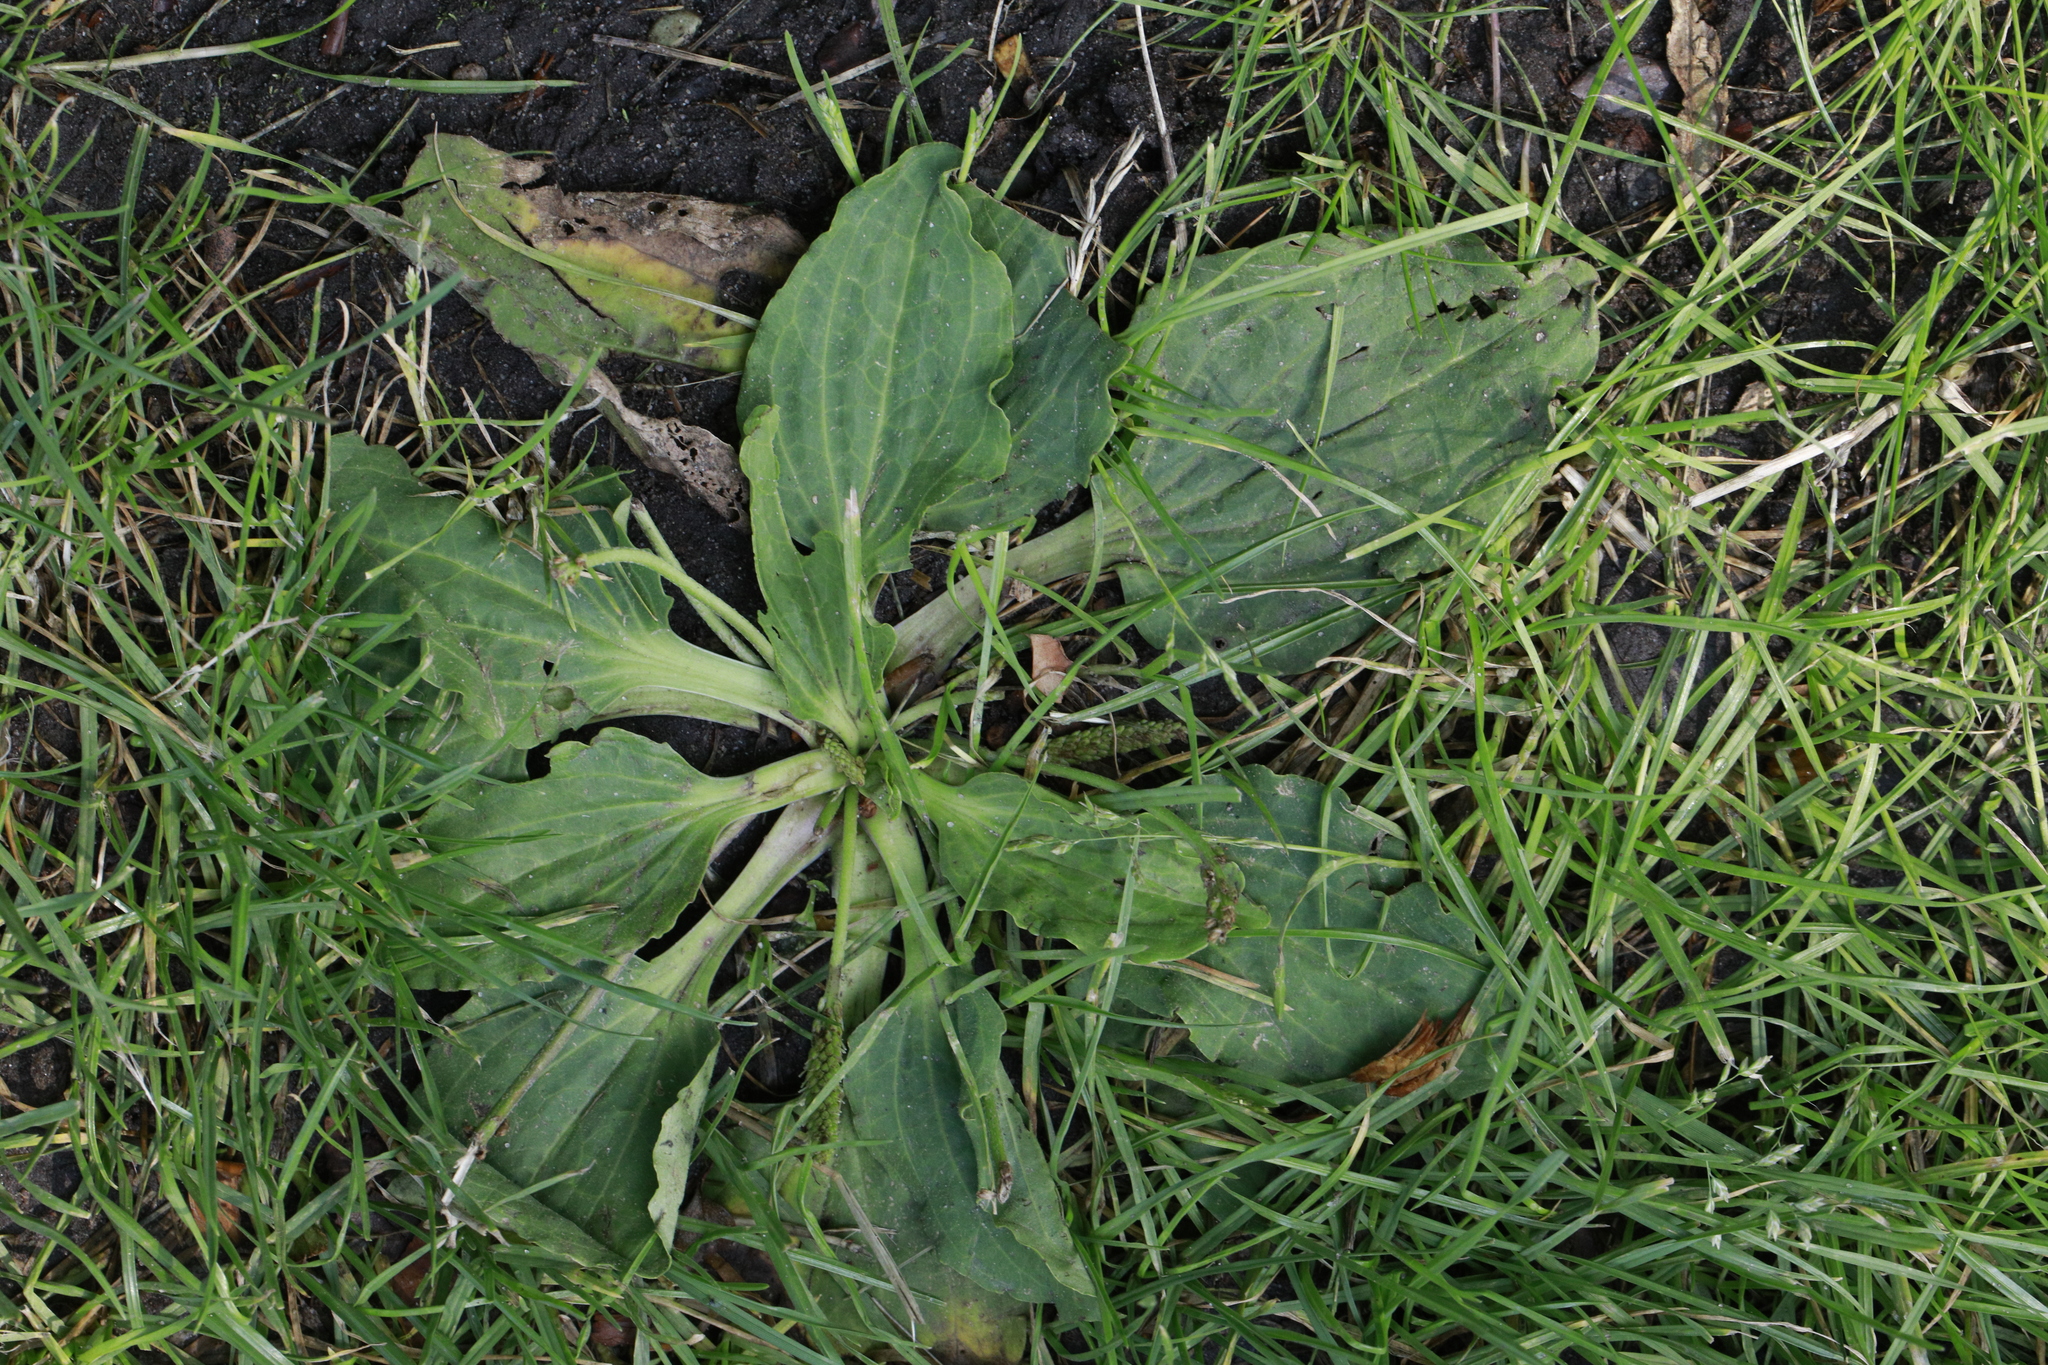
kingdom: Plantae
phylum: Tracheophyta
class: Magnoliopsida
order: Lamiales
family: Plantaginaceae
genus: Plantago
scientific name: Plantago major
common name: Common plantain
